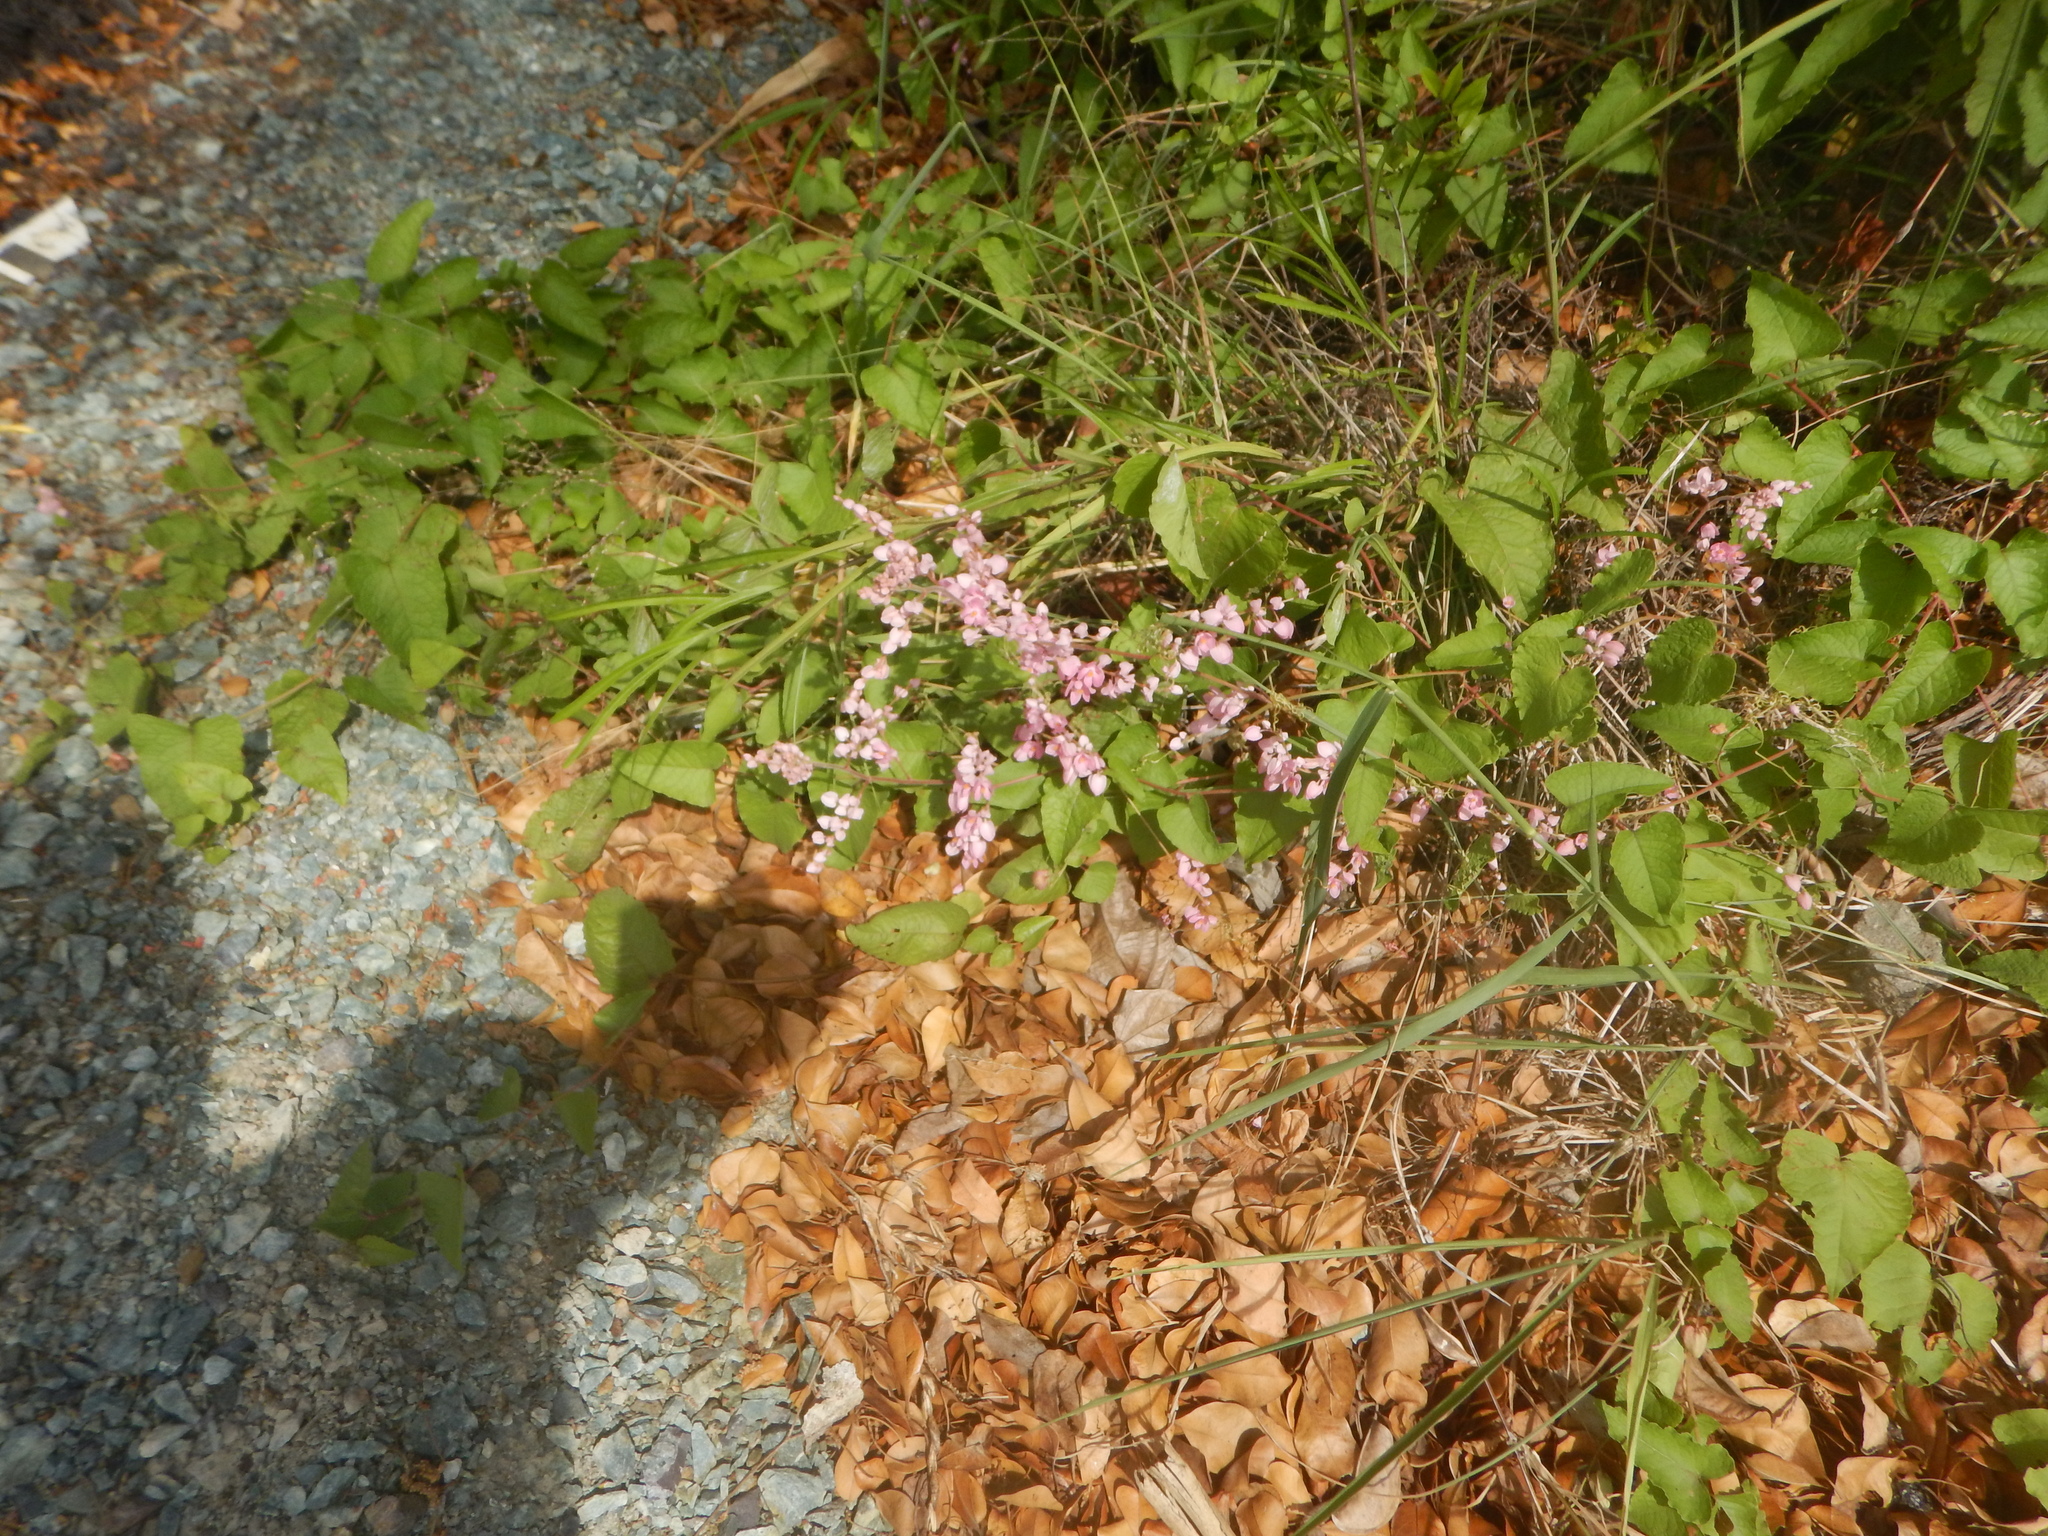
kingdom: Plantae
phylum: Tracheophyta
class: Magnoliopsida
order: Caryophyllales
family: Polygonaceae
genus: Antigonon
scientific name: Antigonon leptopus
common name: Coral vine
